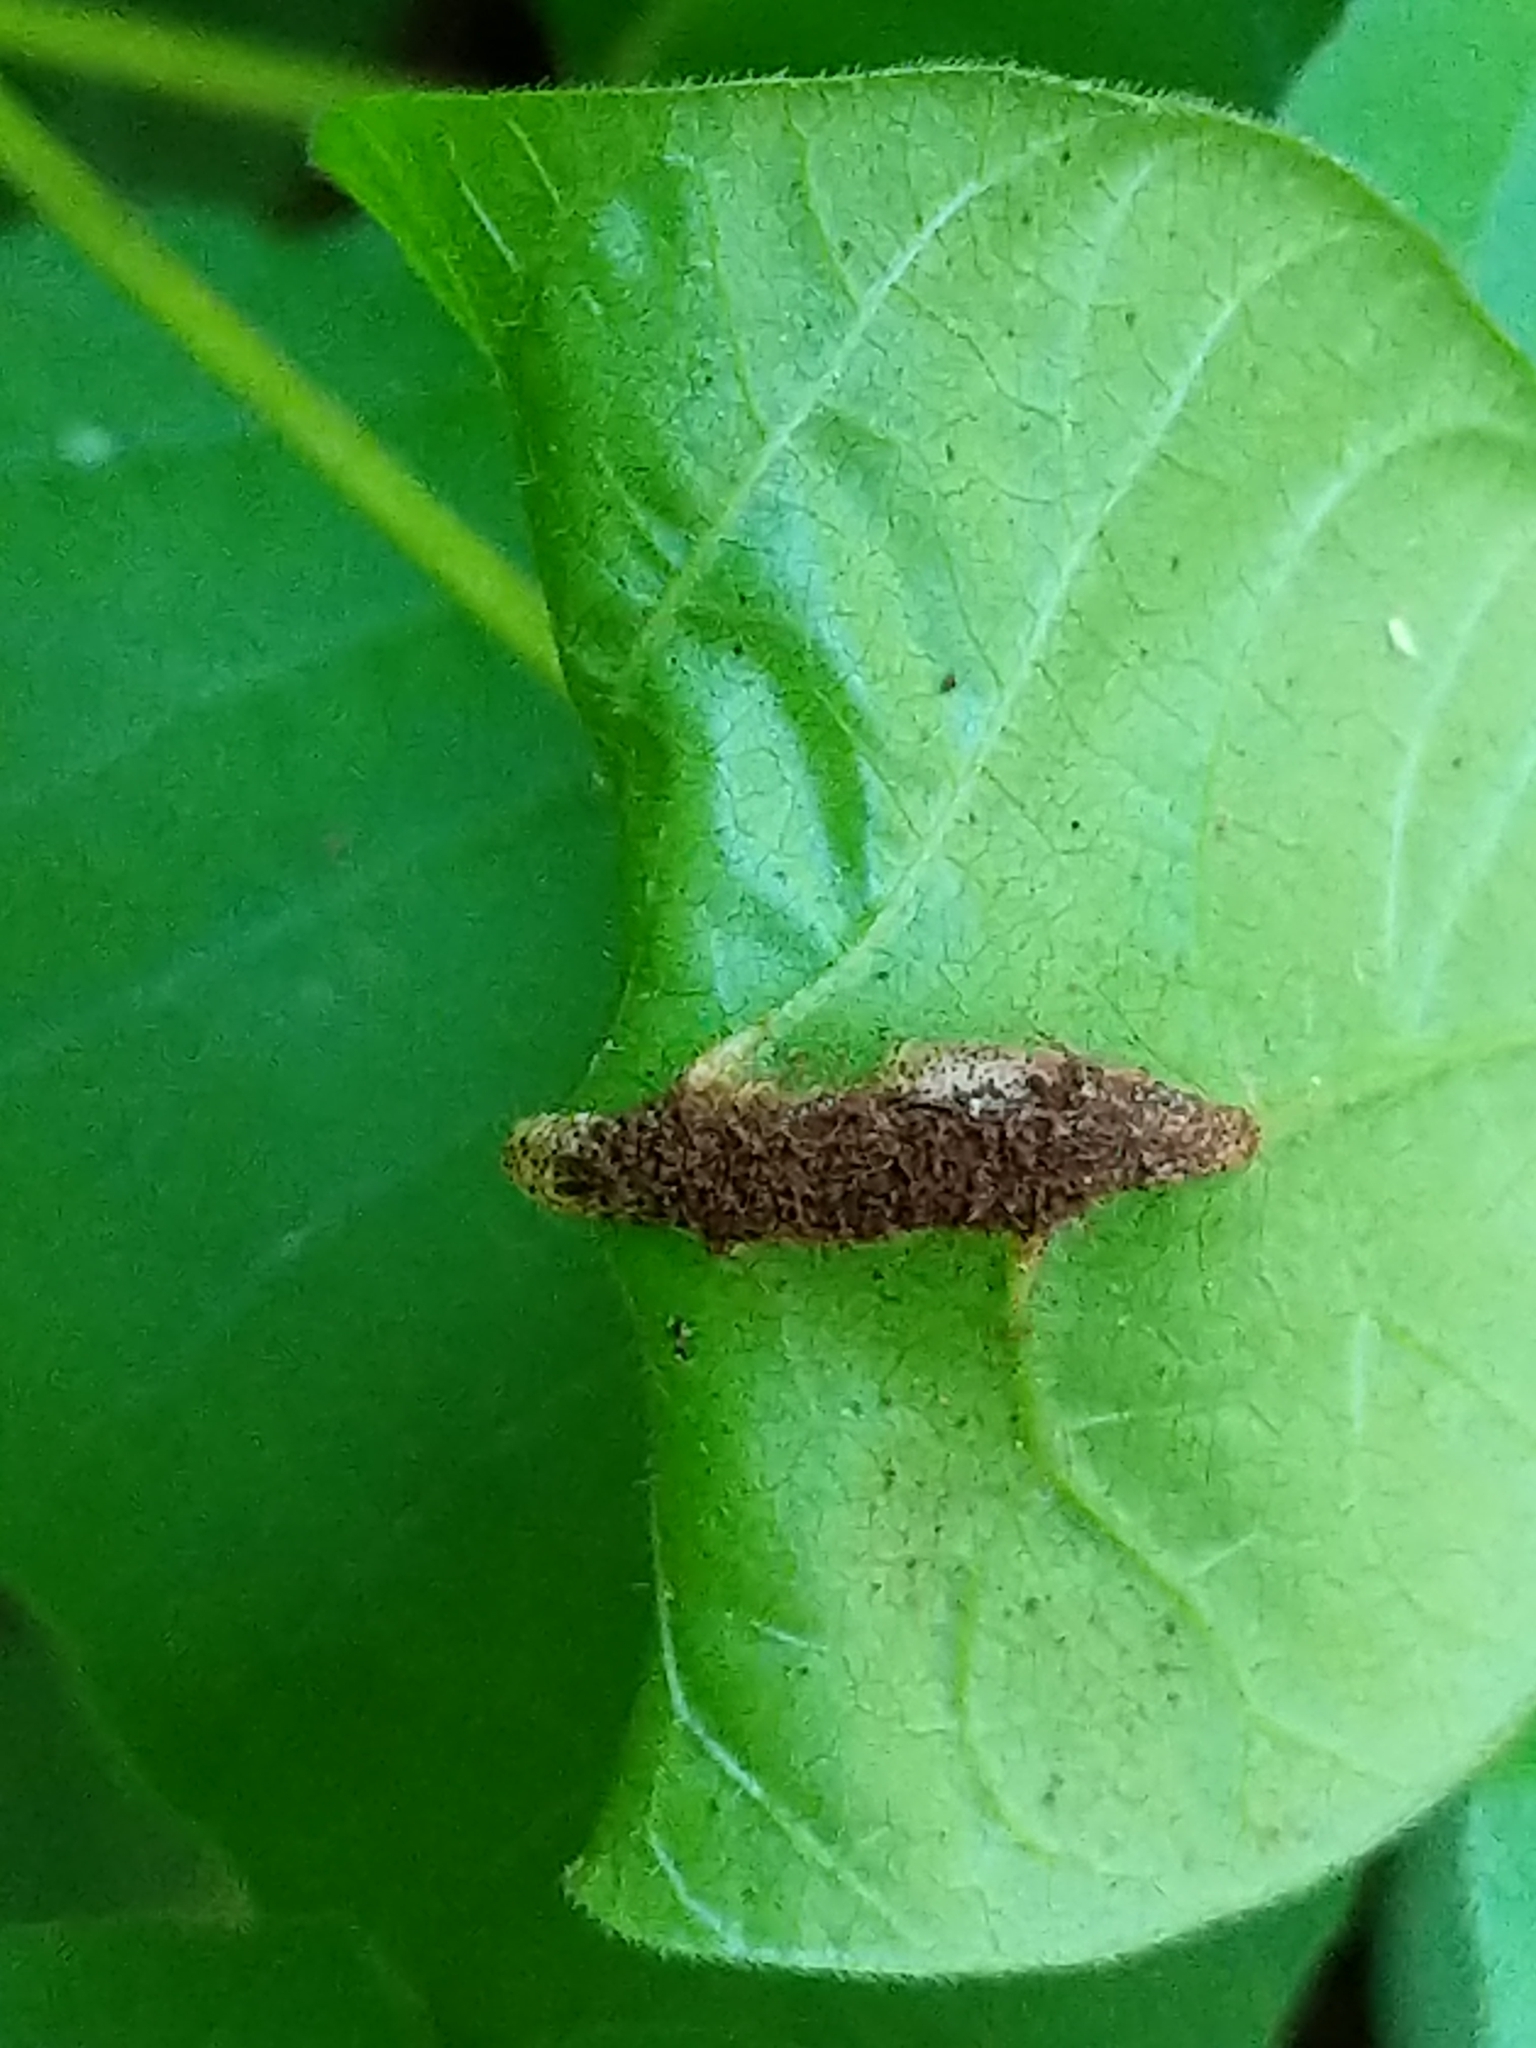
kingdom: Fungi
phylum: Basidiomycota
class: Pucciniomycetes
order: Pucciniales
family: Pileolariaceae
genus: Pileolaria
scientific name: Pileolaria brevipes
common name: Poison ivy rust
